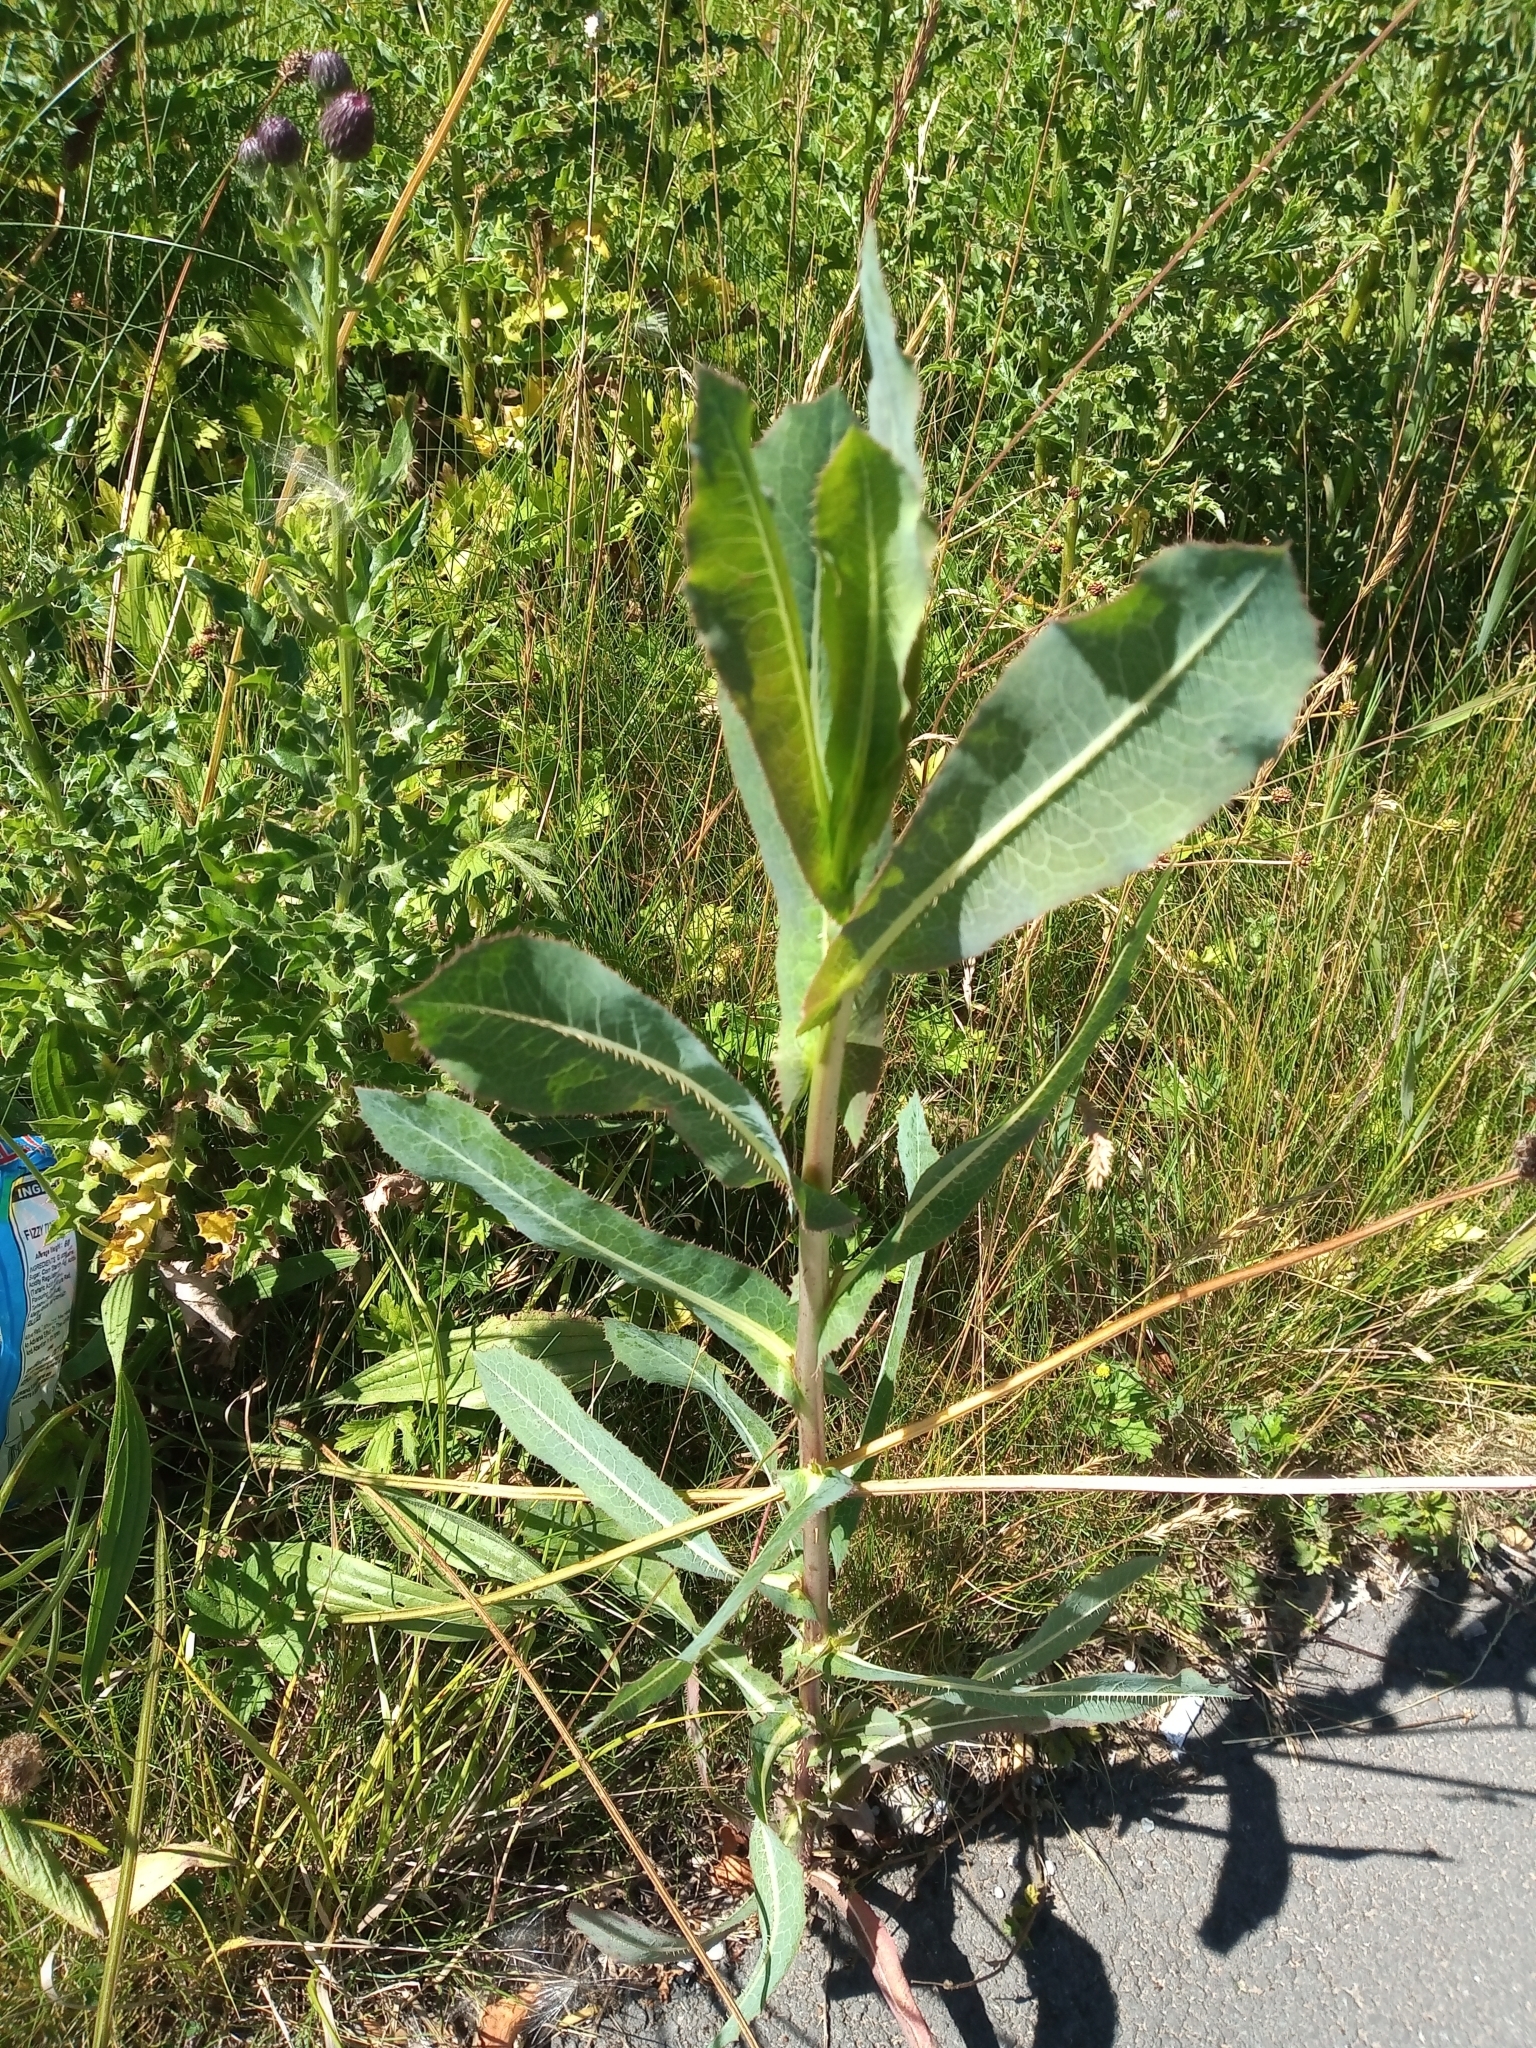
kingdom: Plantae
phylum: Tracheophyta
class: Magnoliopsida
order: Asterales
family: Asteraceae
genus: Lactuca
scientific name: Lactuca serriola
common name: Prickly lettuce
